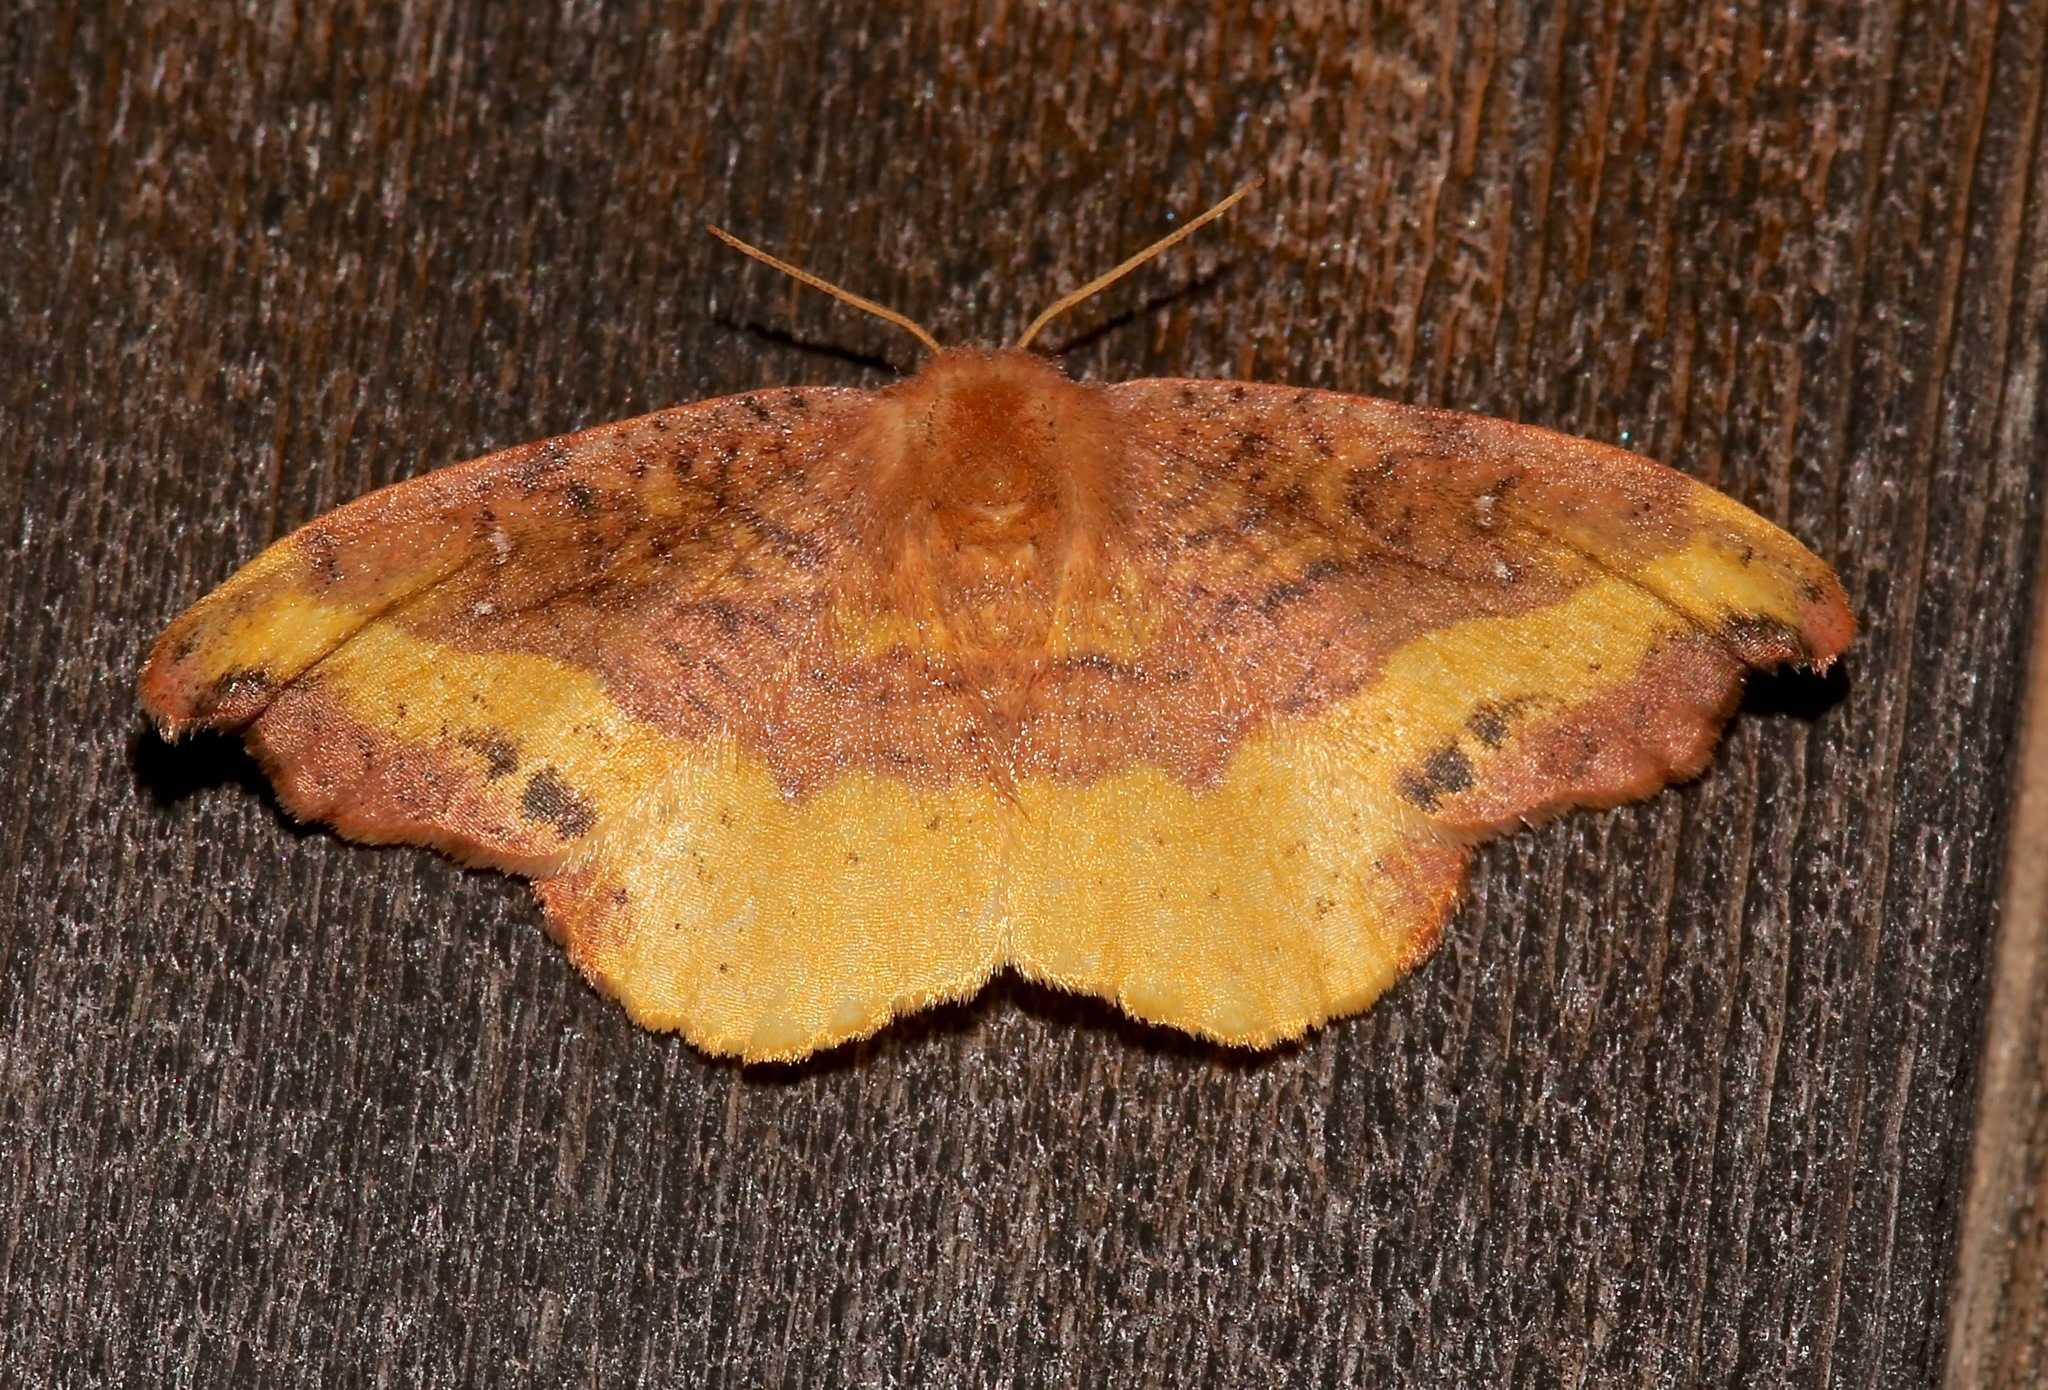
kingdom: Animalia
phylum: Arthropoda
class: Insecta
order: Lepidoptera
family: Drepanidae
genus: Oreta
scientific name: Oreta rosea
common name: Rose hooktip
